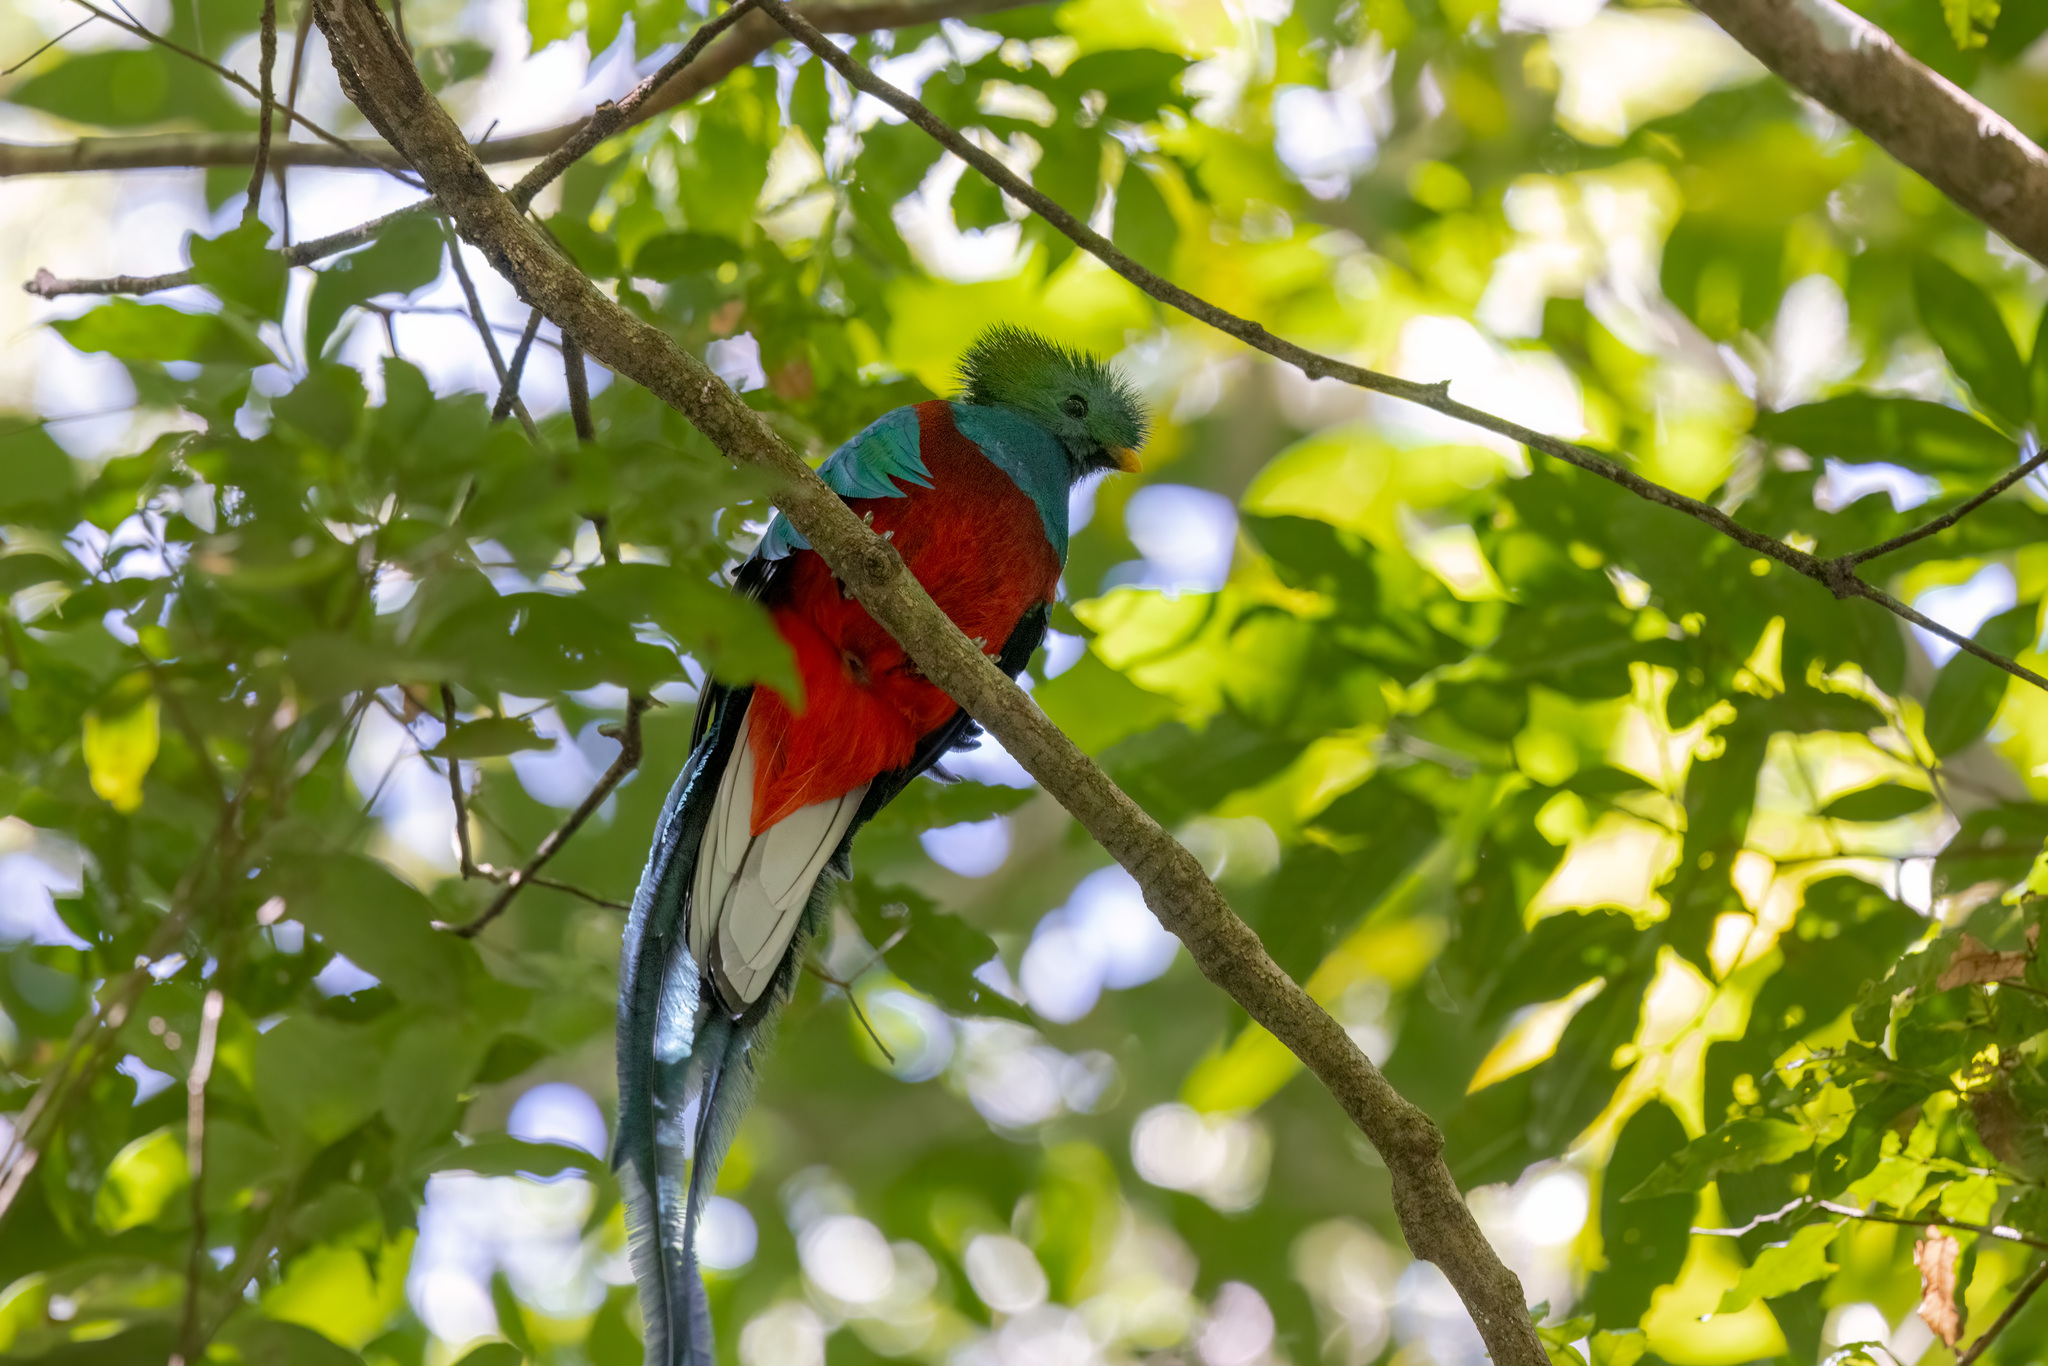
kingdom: Animalia
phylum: Chordata
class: Aves
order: Trogoniformes
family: Trogonidae
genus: Pharomachrus
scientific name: Pharomachrus mocinno
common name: Resplendent quetzal
